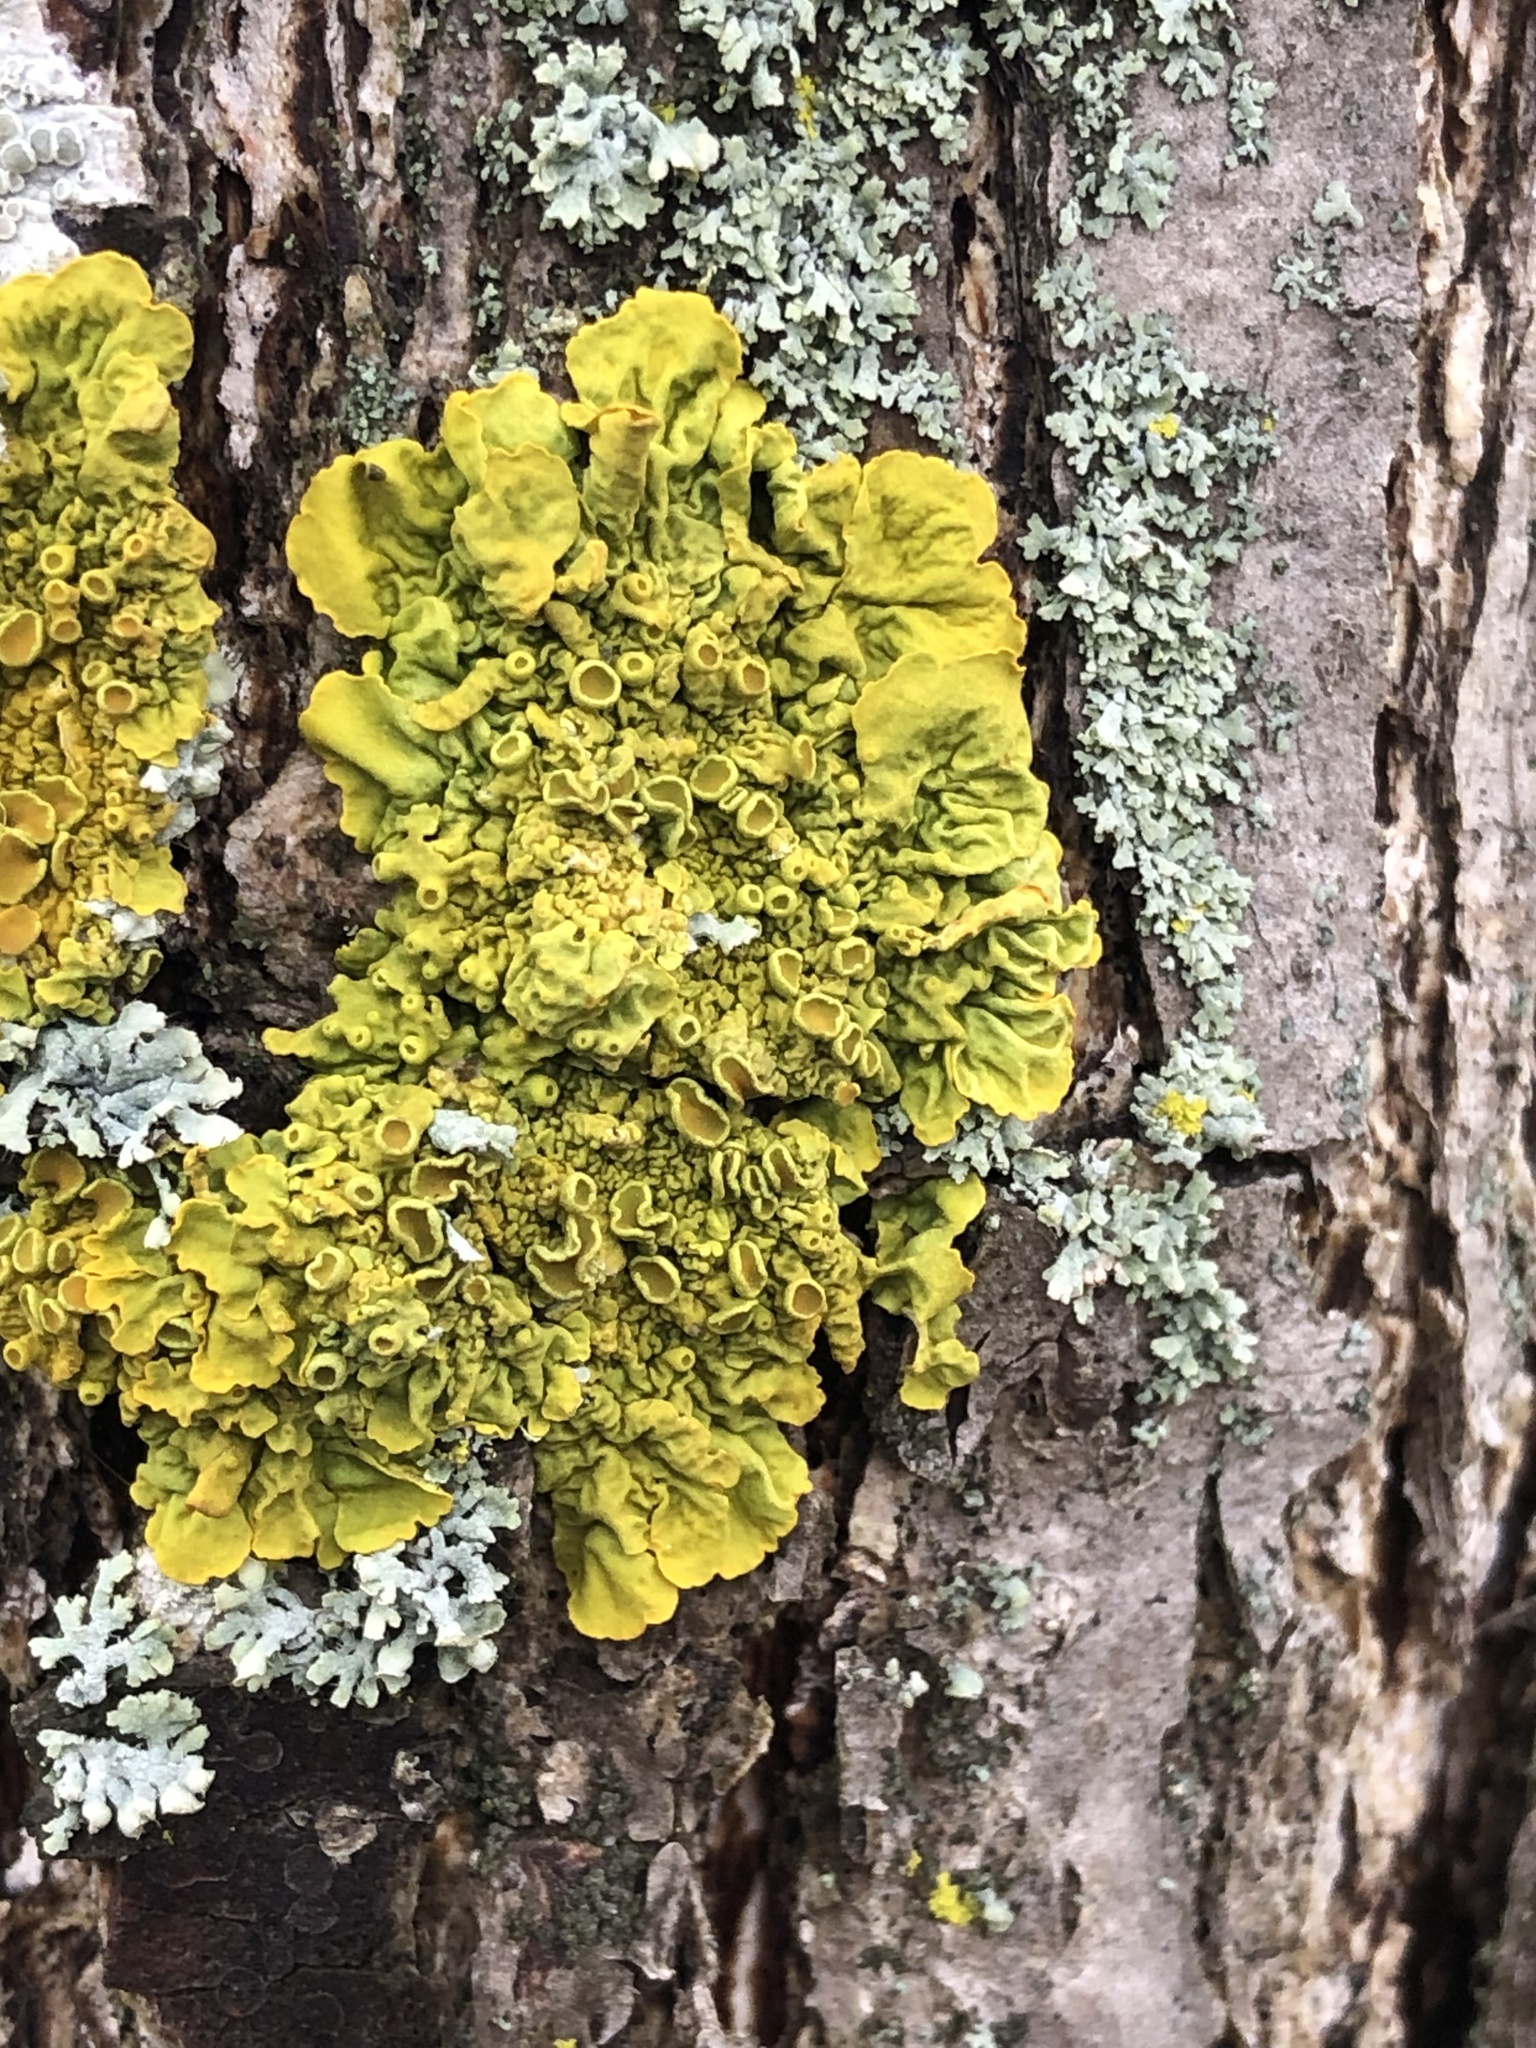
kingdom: Fungi
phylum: Ascomycota
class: Lecanoromycetes
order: Teloschistales
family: Teloschistaceae
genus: Xanthoria
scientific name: Xanthoria parietina
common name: Common orange lichen
